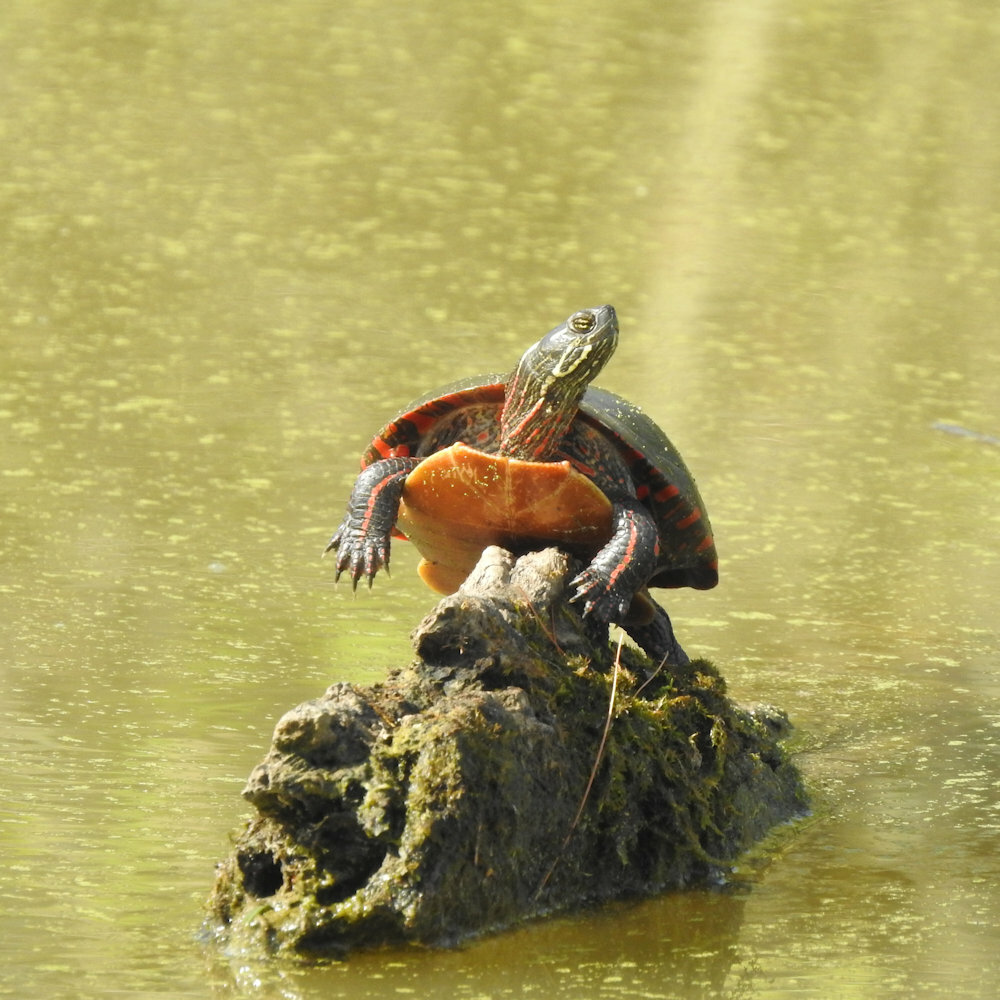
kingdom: Animalia
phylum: Chordata
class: Testudines
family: Emydidae
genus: Chrysemys
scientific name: Chrysemys picta
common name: Painted turtle
